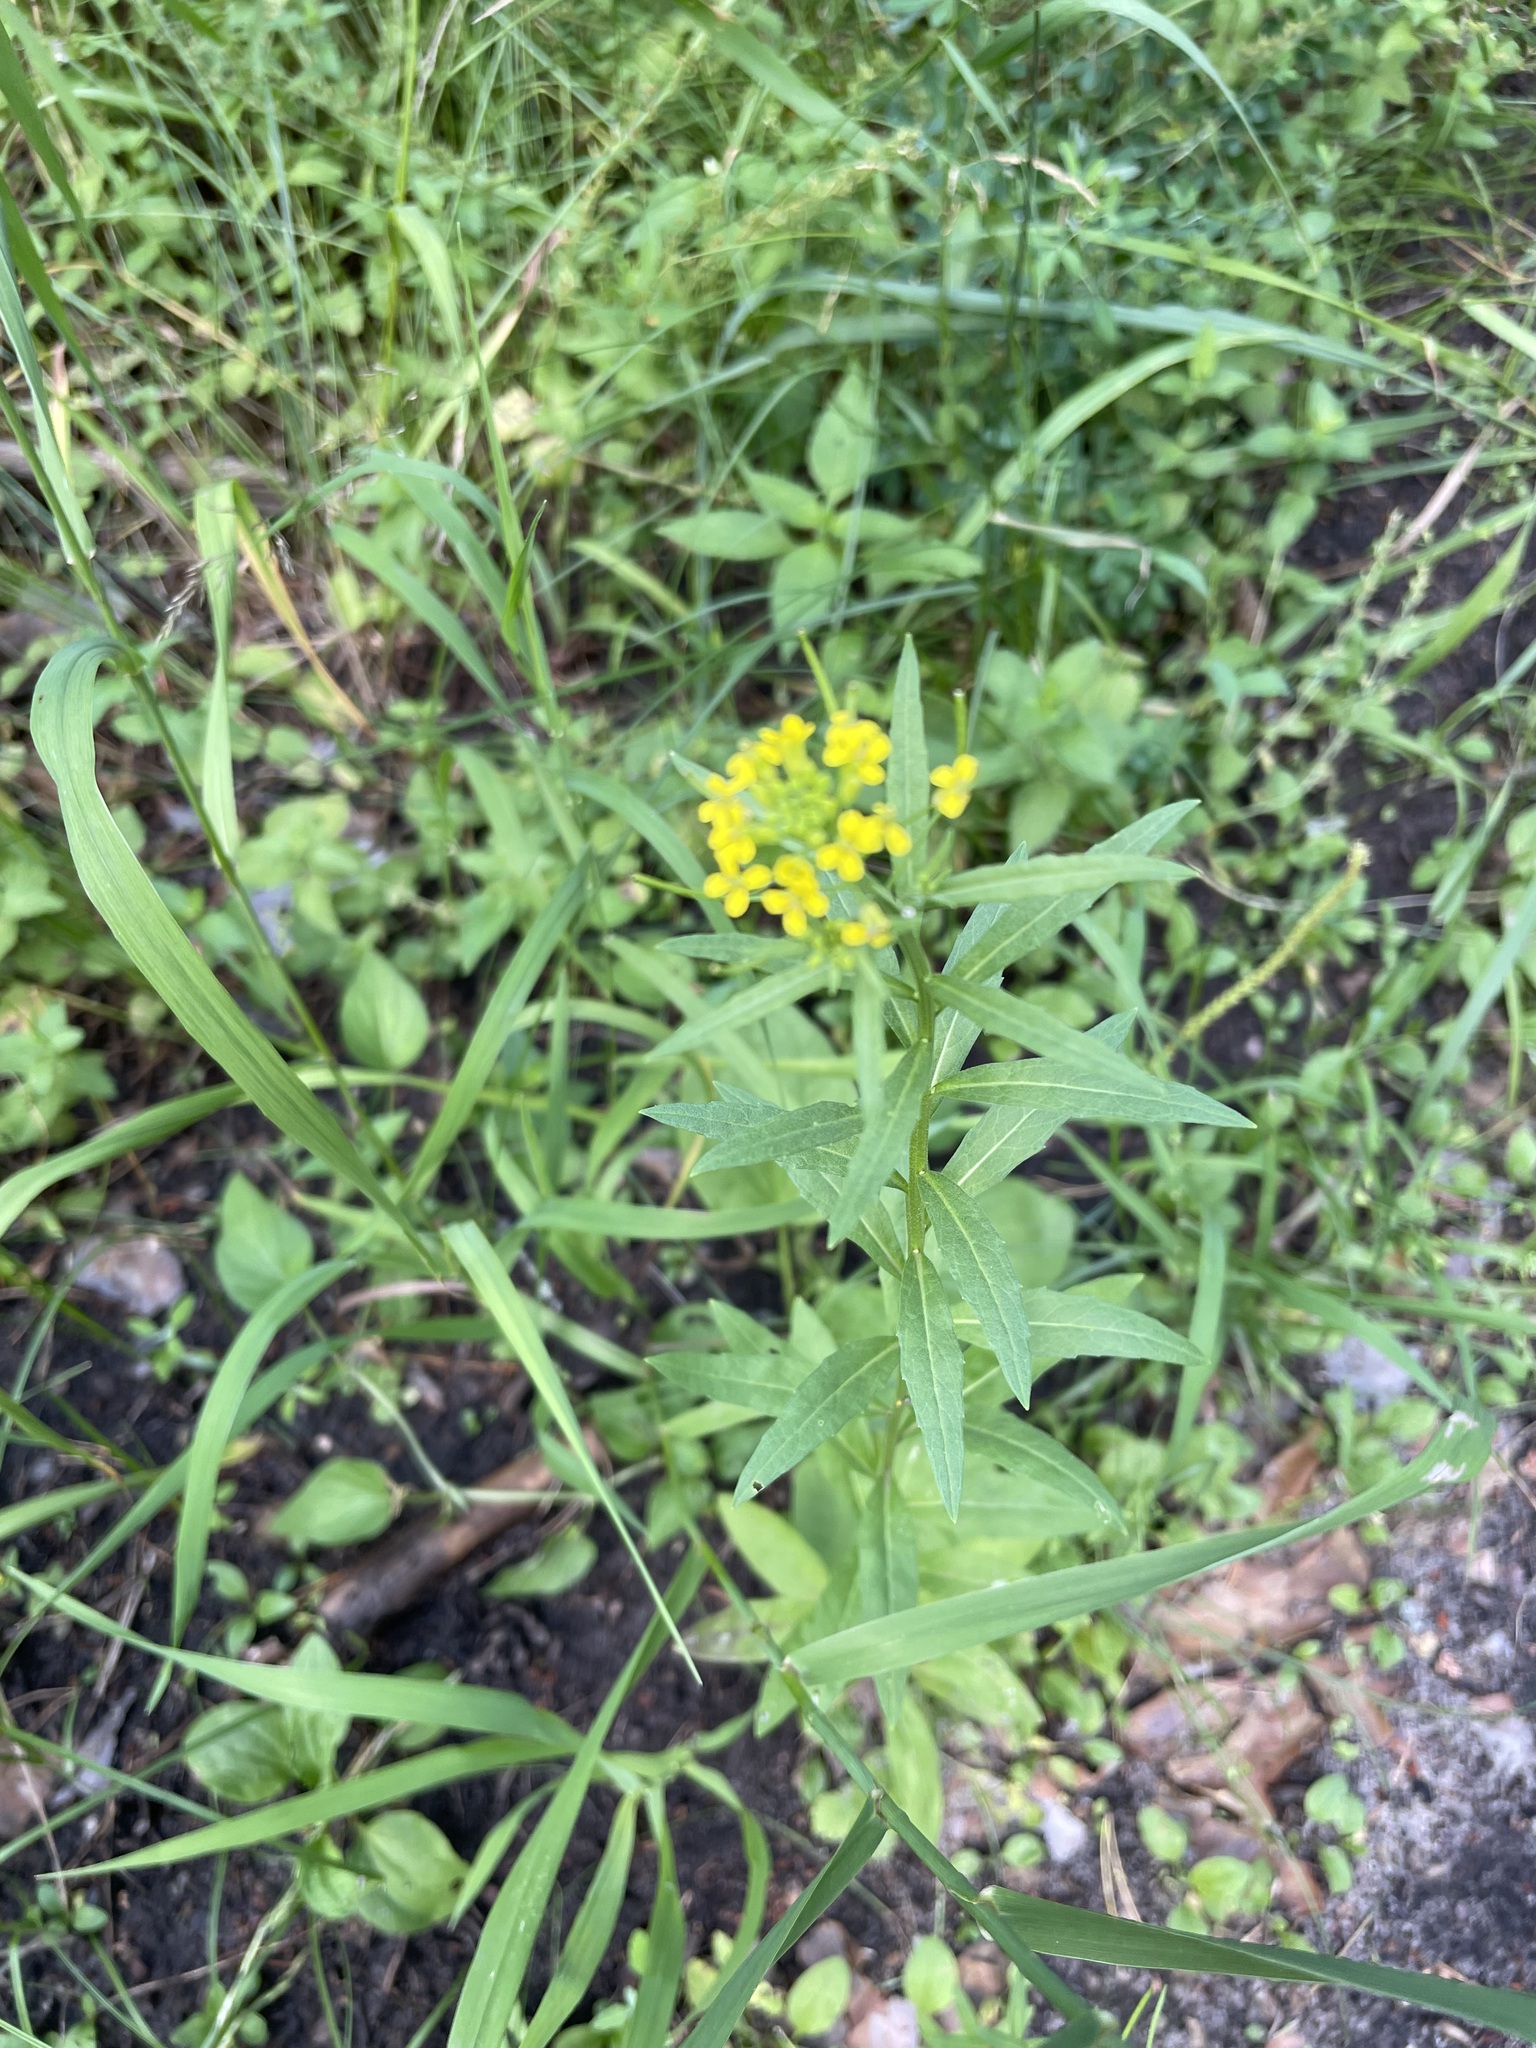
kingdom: Plantae
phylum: Tracheophyta
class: Magnoliopsida
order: Brassicales
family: Brassicaceae
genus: Erysimum
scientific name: Erysimum cheiranthoides
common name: Treacle mustard
